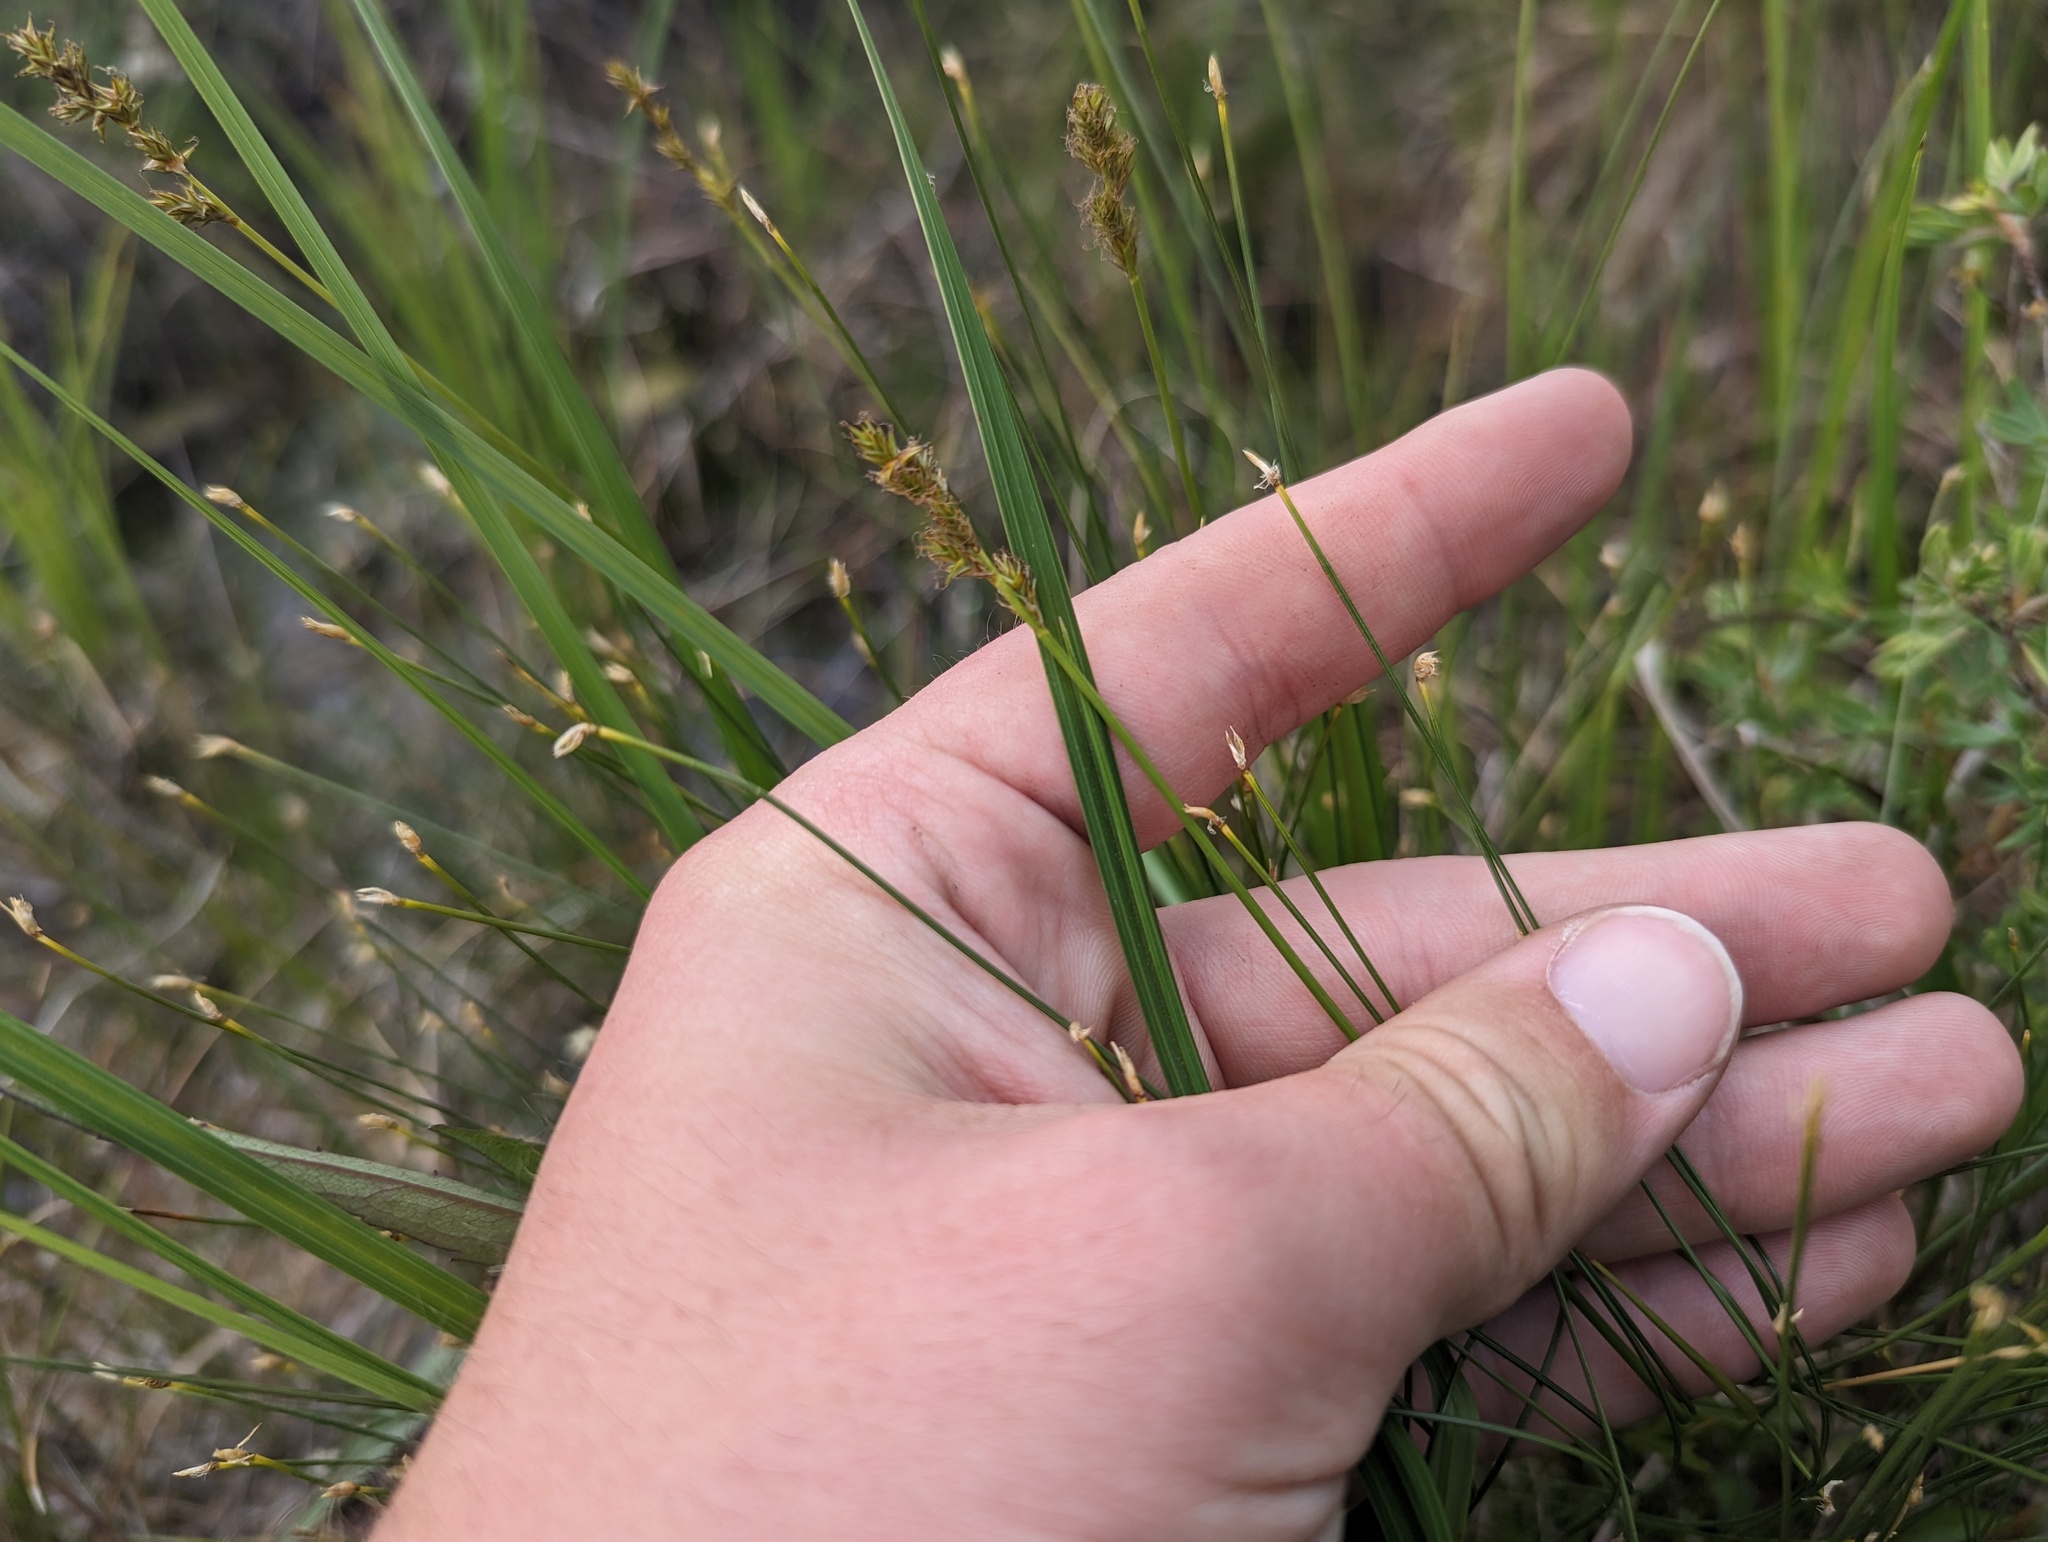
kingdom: Plantae
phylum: Tracheophyta
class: Liliopsida
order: Poales
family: Cyperaceae
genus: Trichophorum
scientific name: Trichophorum cespitosum
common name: Cespitose bulrush
